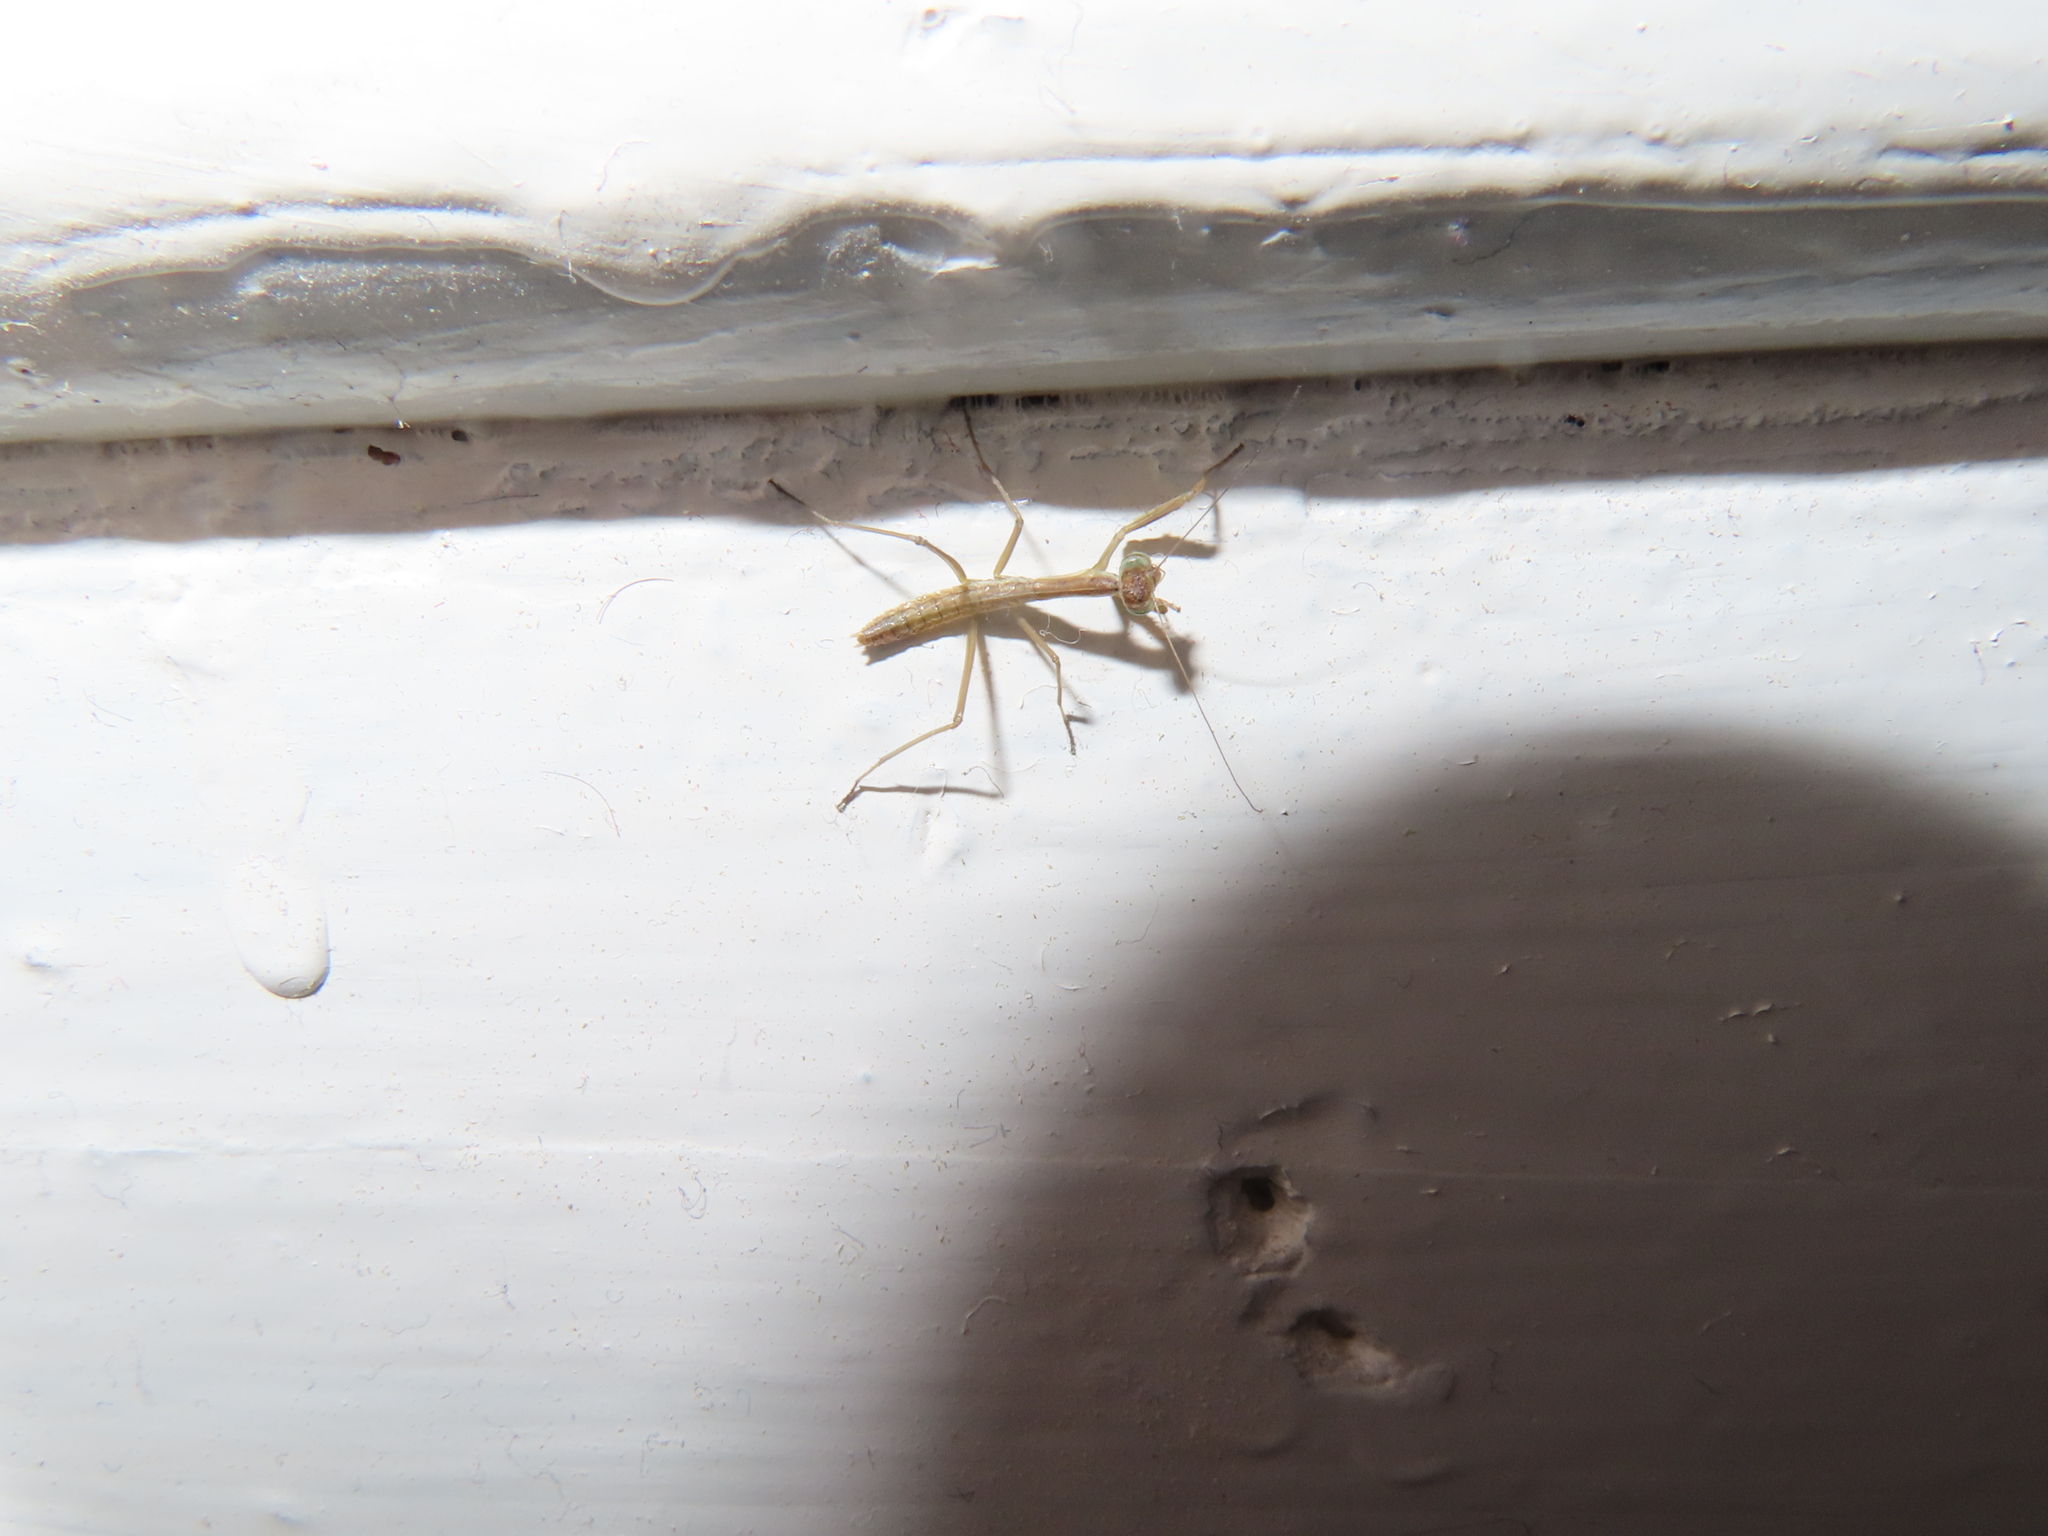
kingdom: Animalia
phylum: Arthropoda
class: Insecta
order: Mantodea
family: Mantidae
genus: Tenodera
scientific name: Tenodera sinensis
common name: Chinese mantis
